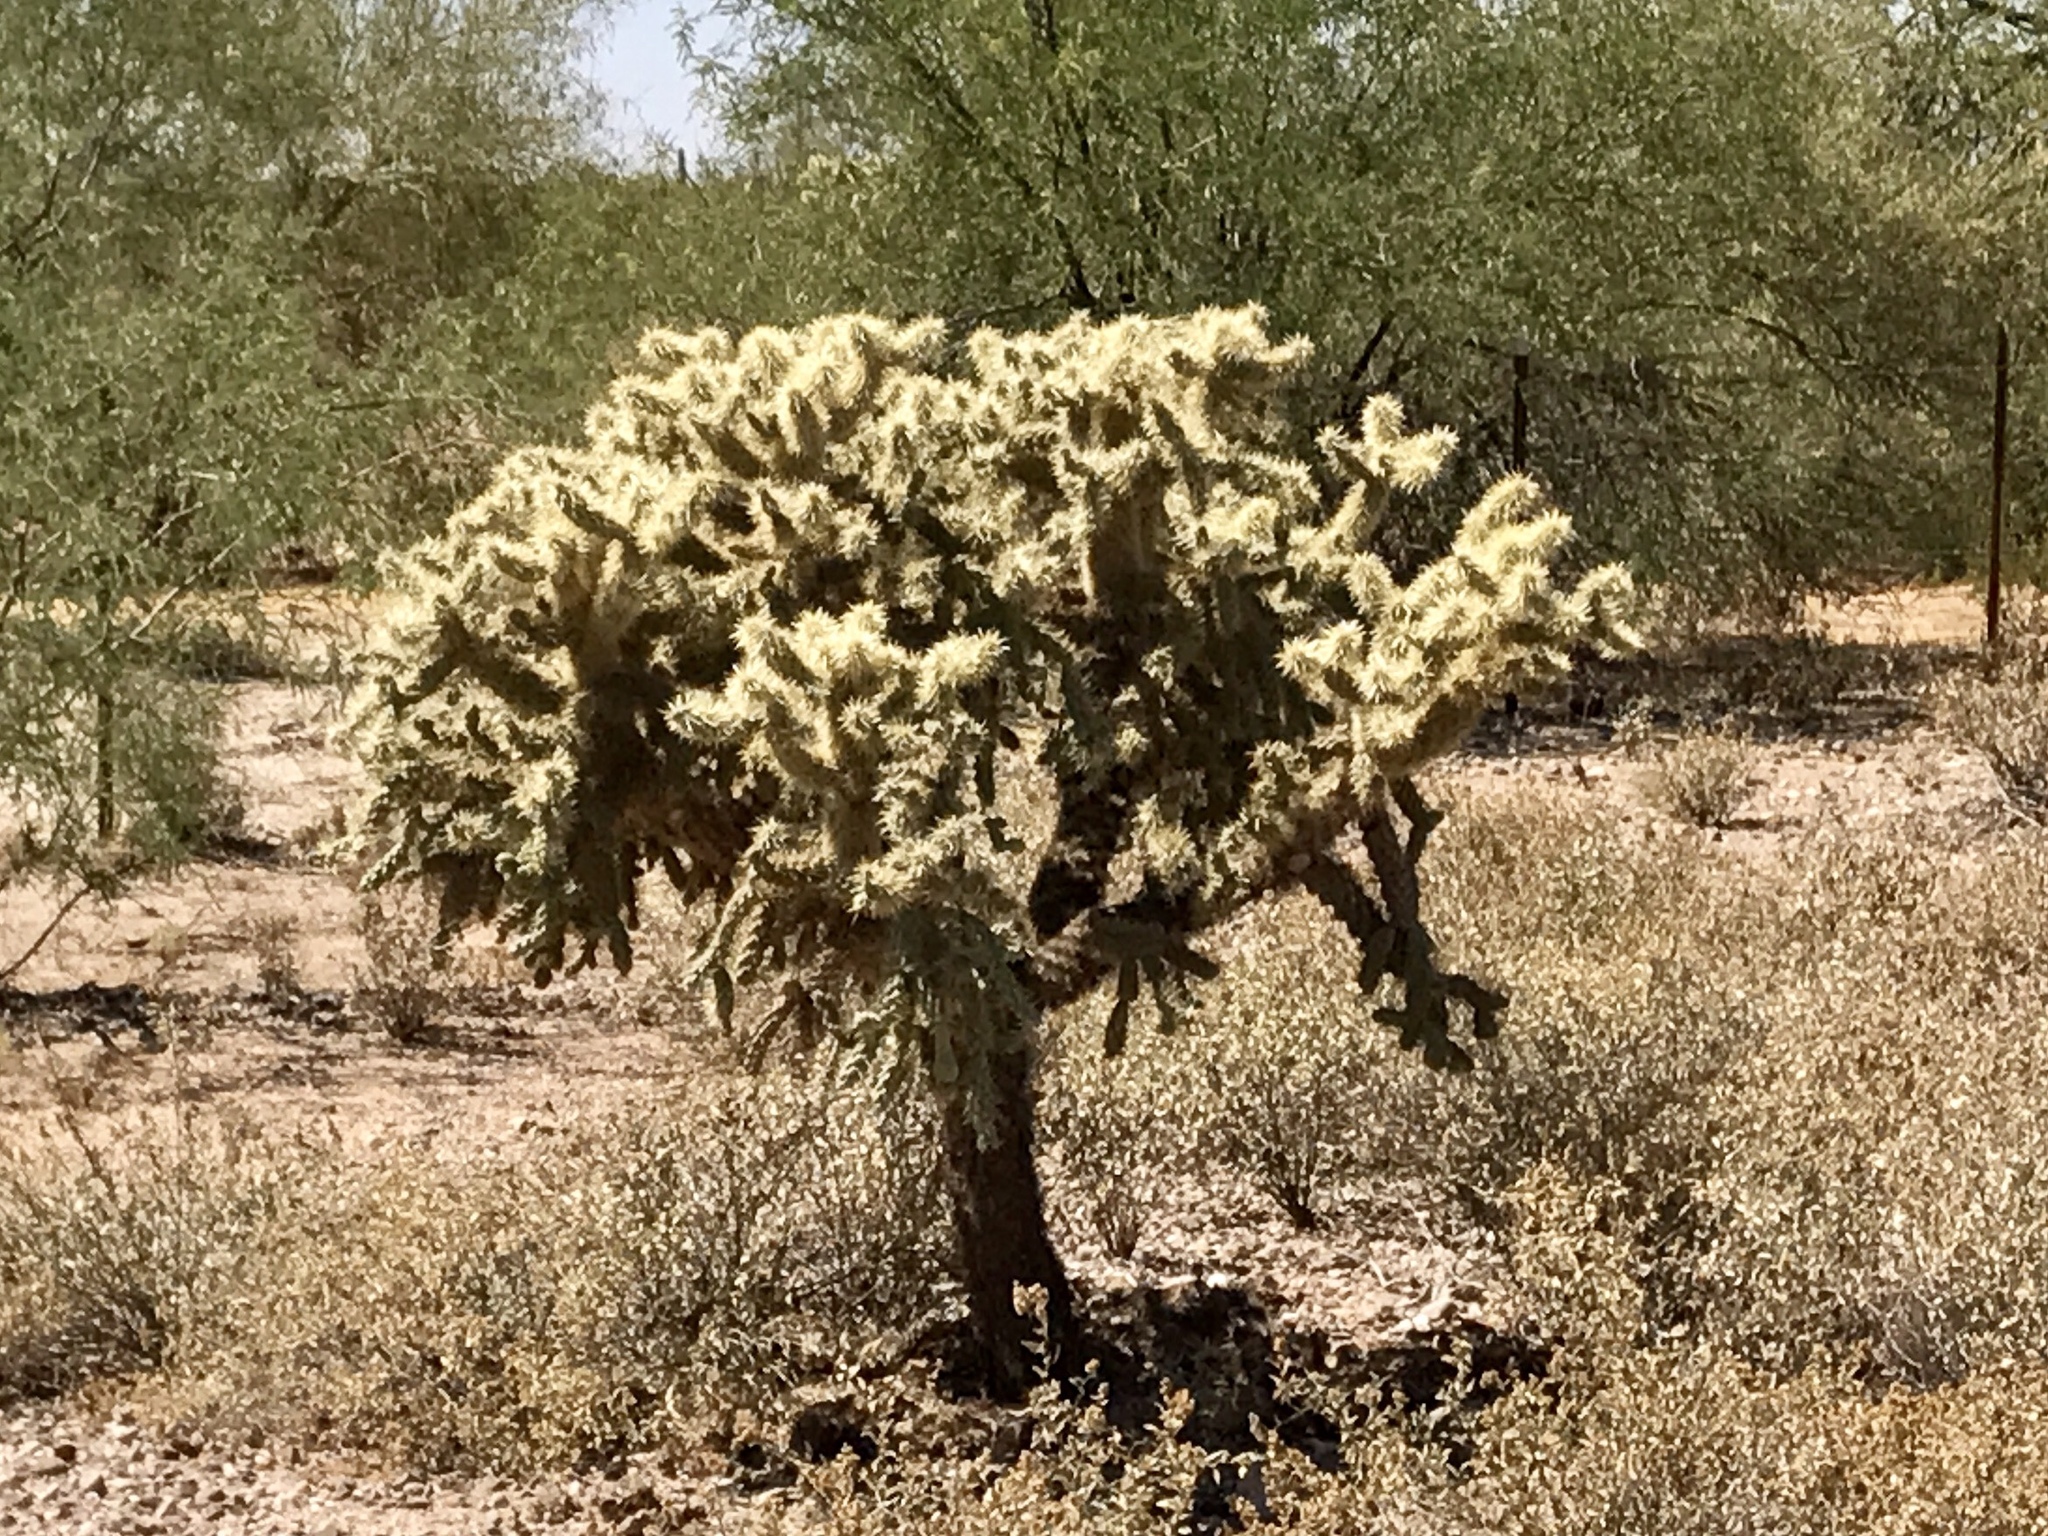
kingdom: Plantae
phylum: Tracheophyta
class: Magnoliopsida
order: Caryophyllales
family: Cactaceae
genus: Cylindropuntia
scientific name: Cylindropuntia fulgida
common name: Jumping cholla
